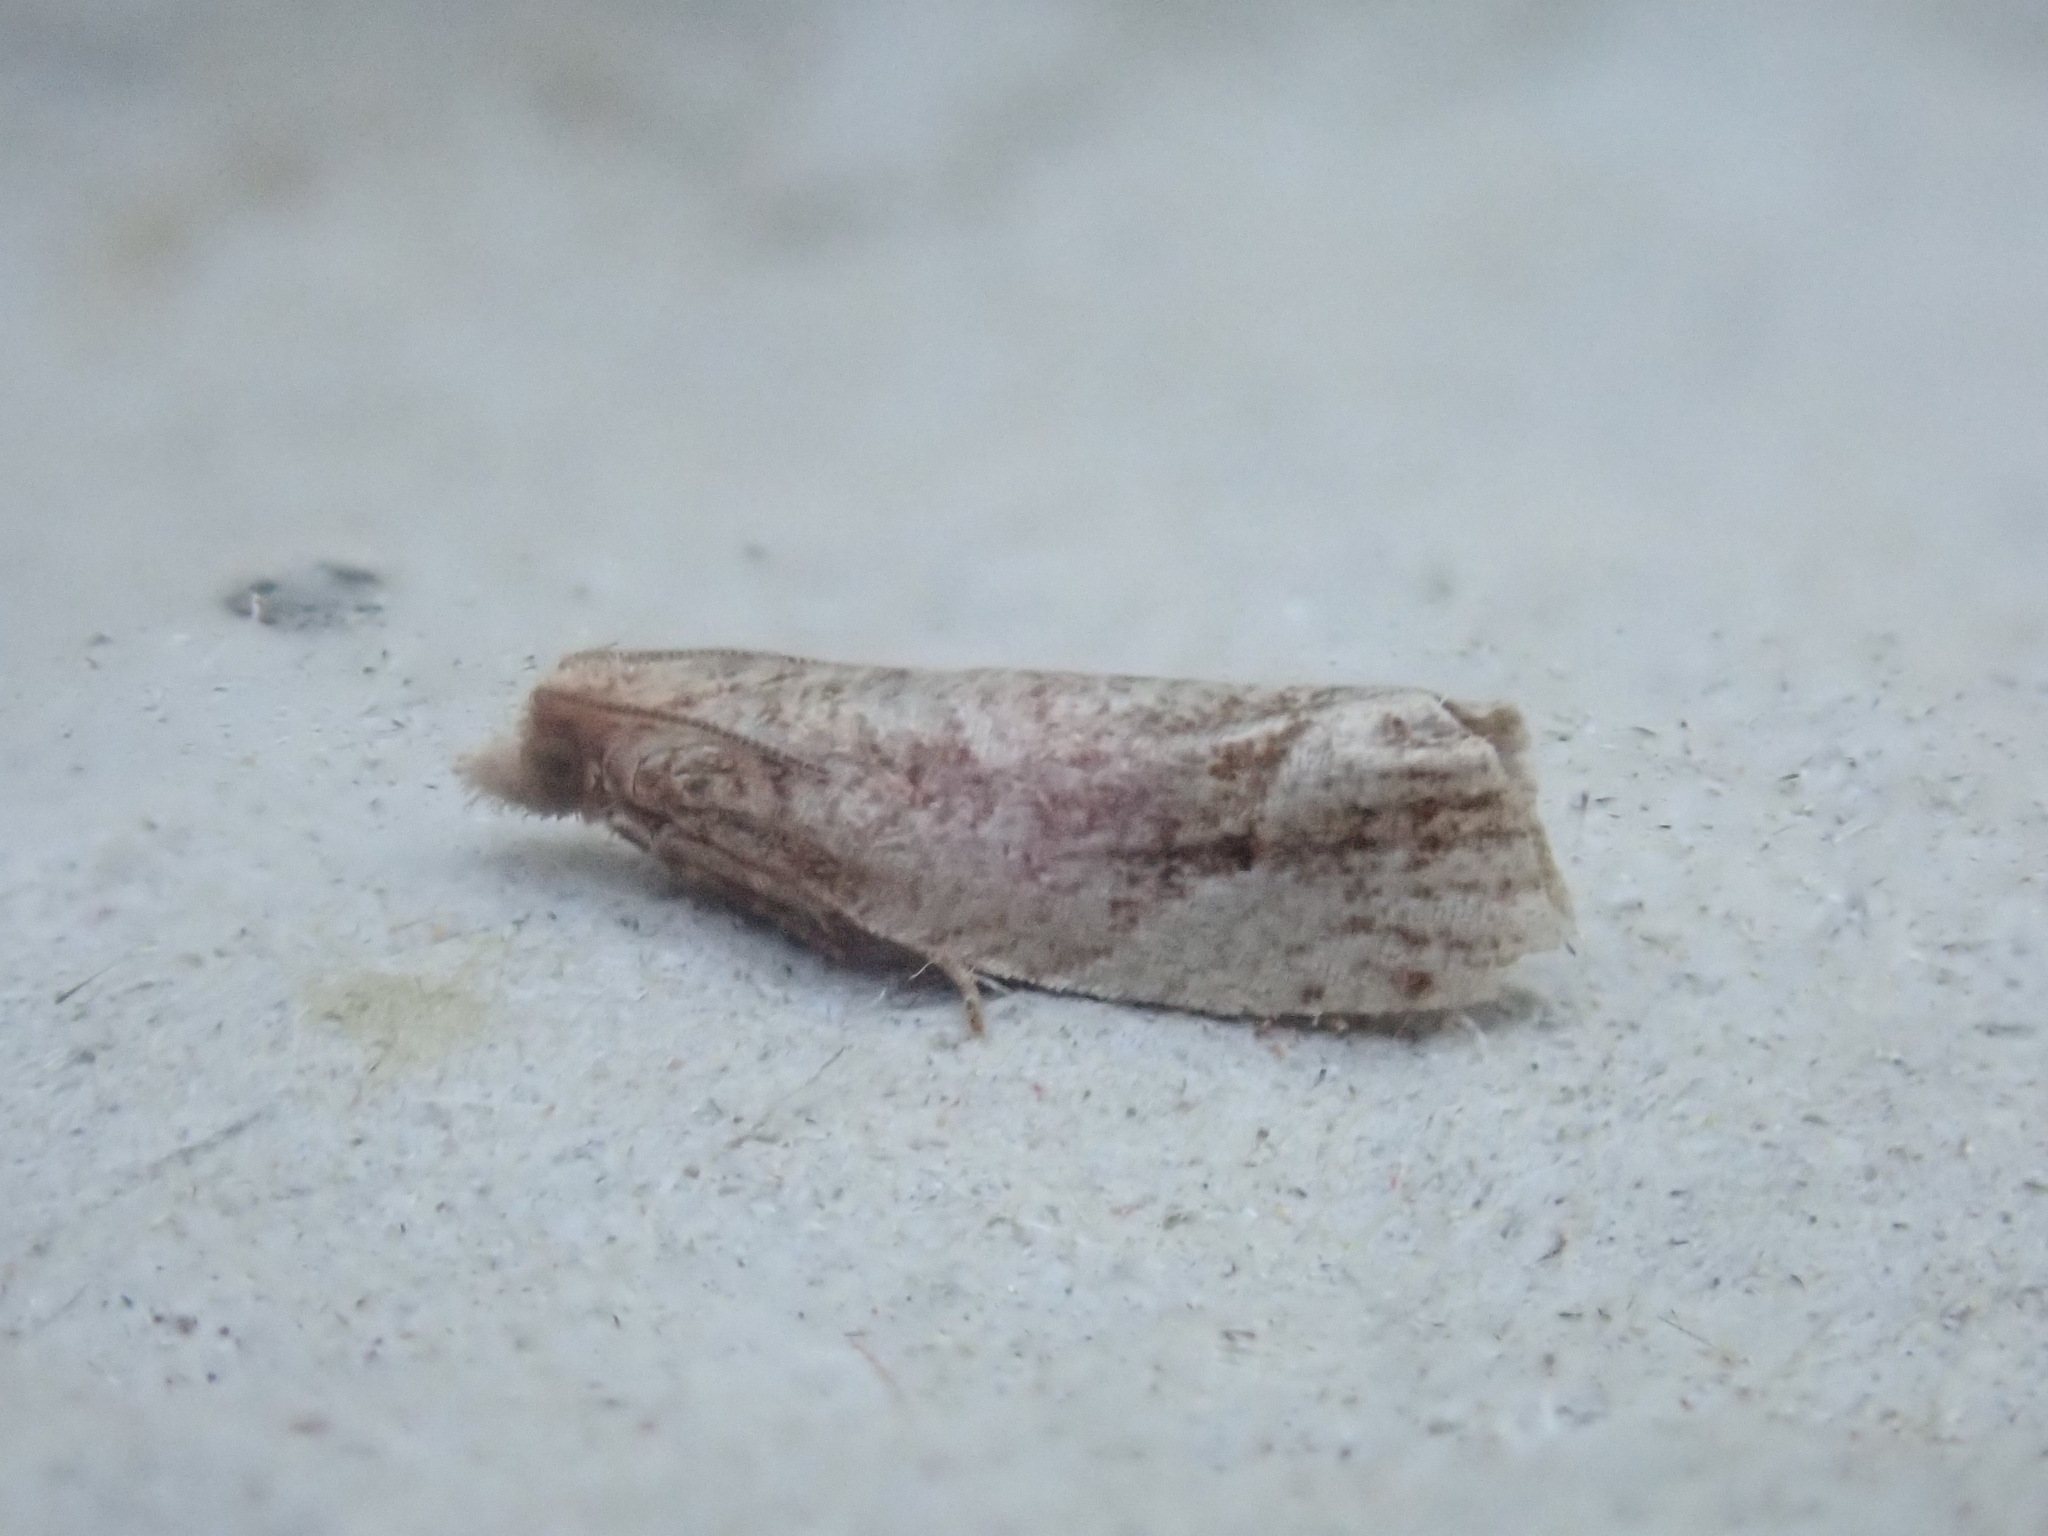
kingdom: Animalia
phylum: Arthropoda
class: Insecta
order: Lepidoptera
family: Tortricidae
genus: Pelochrista
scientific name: Pelochrista derelicta
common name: Derelict pelochrista moth
